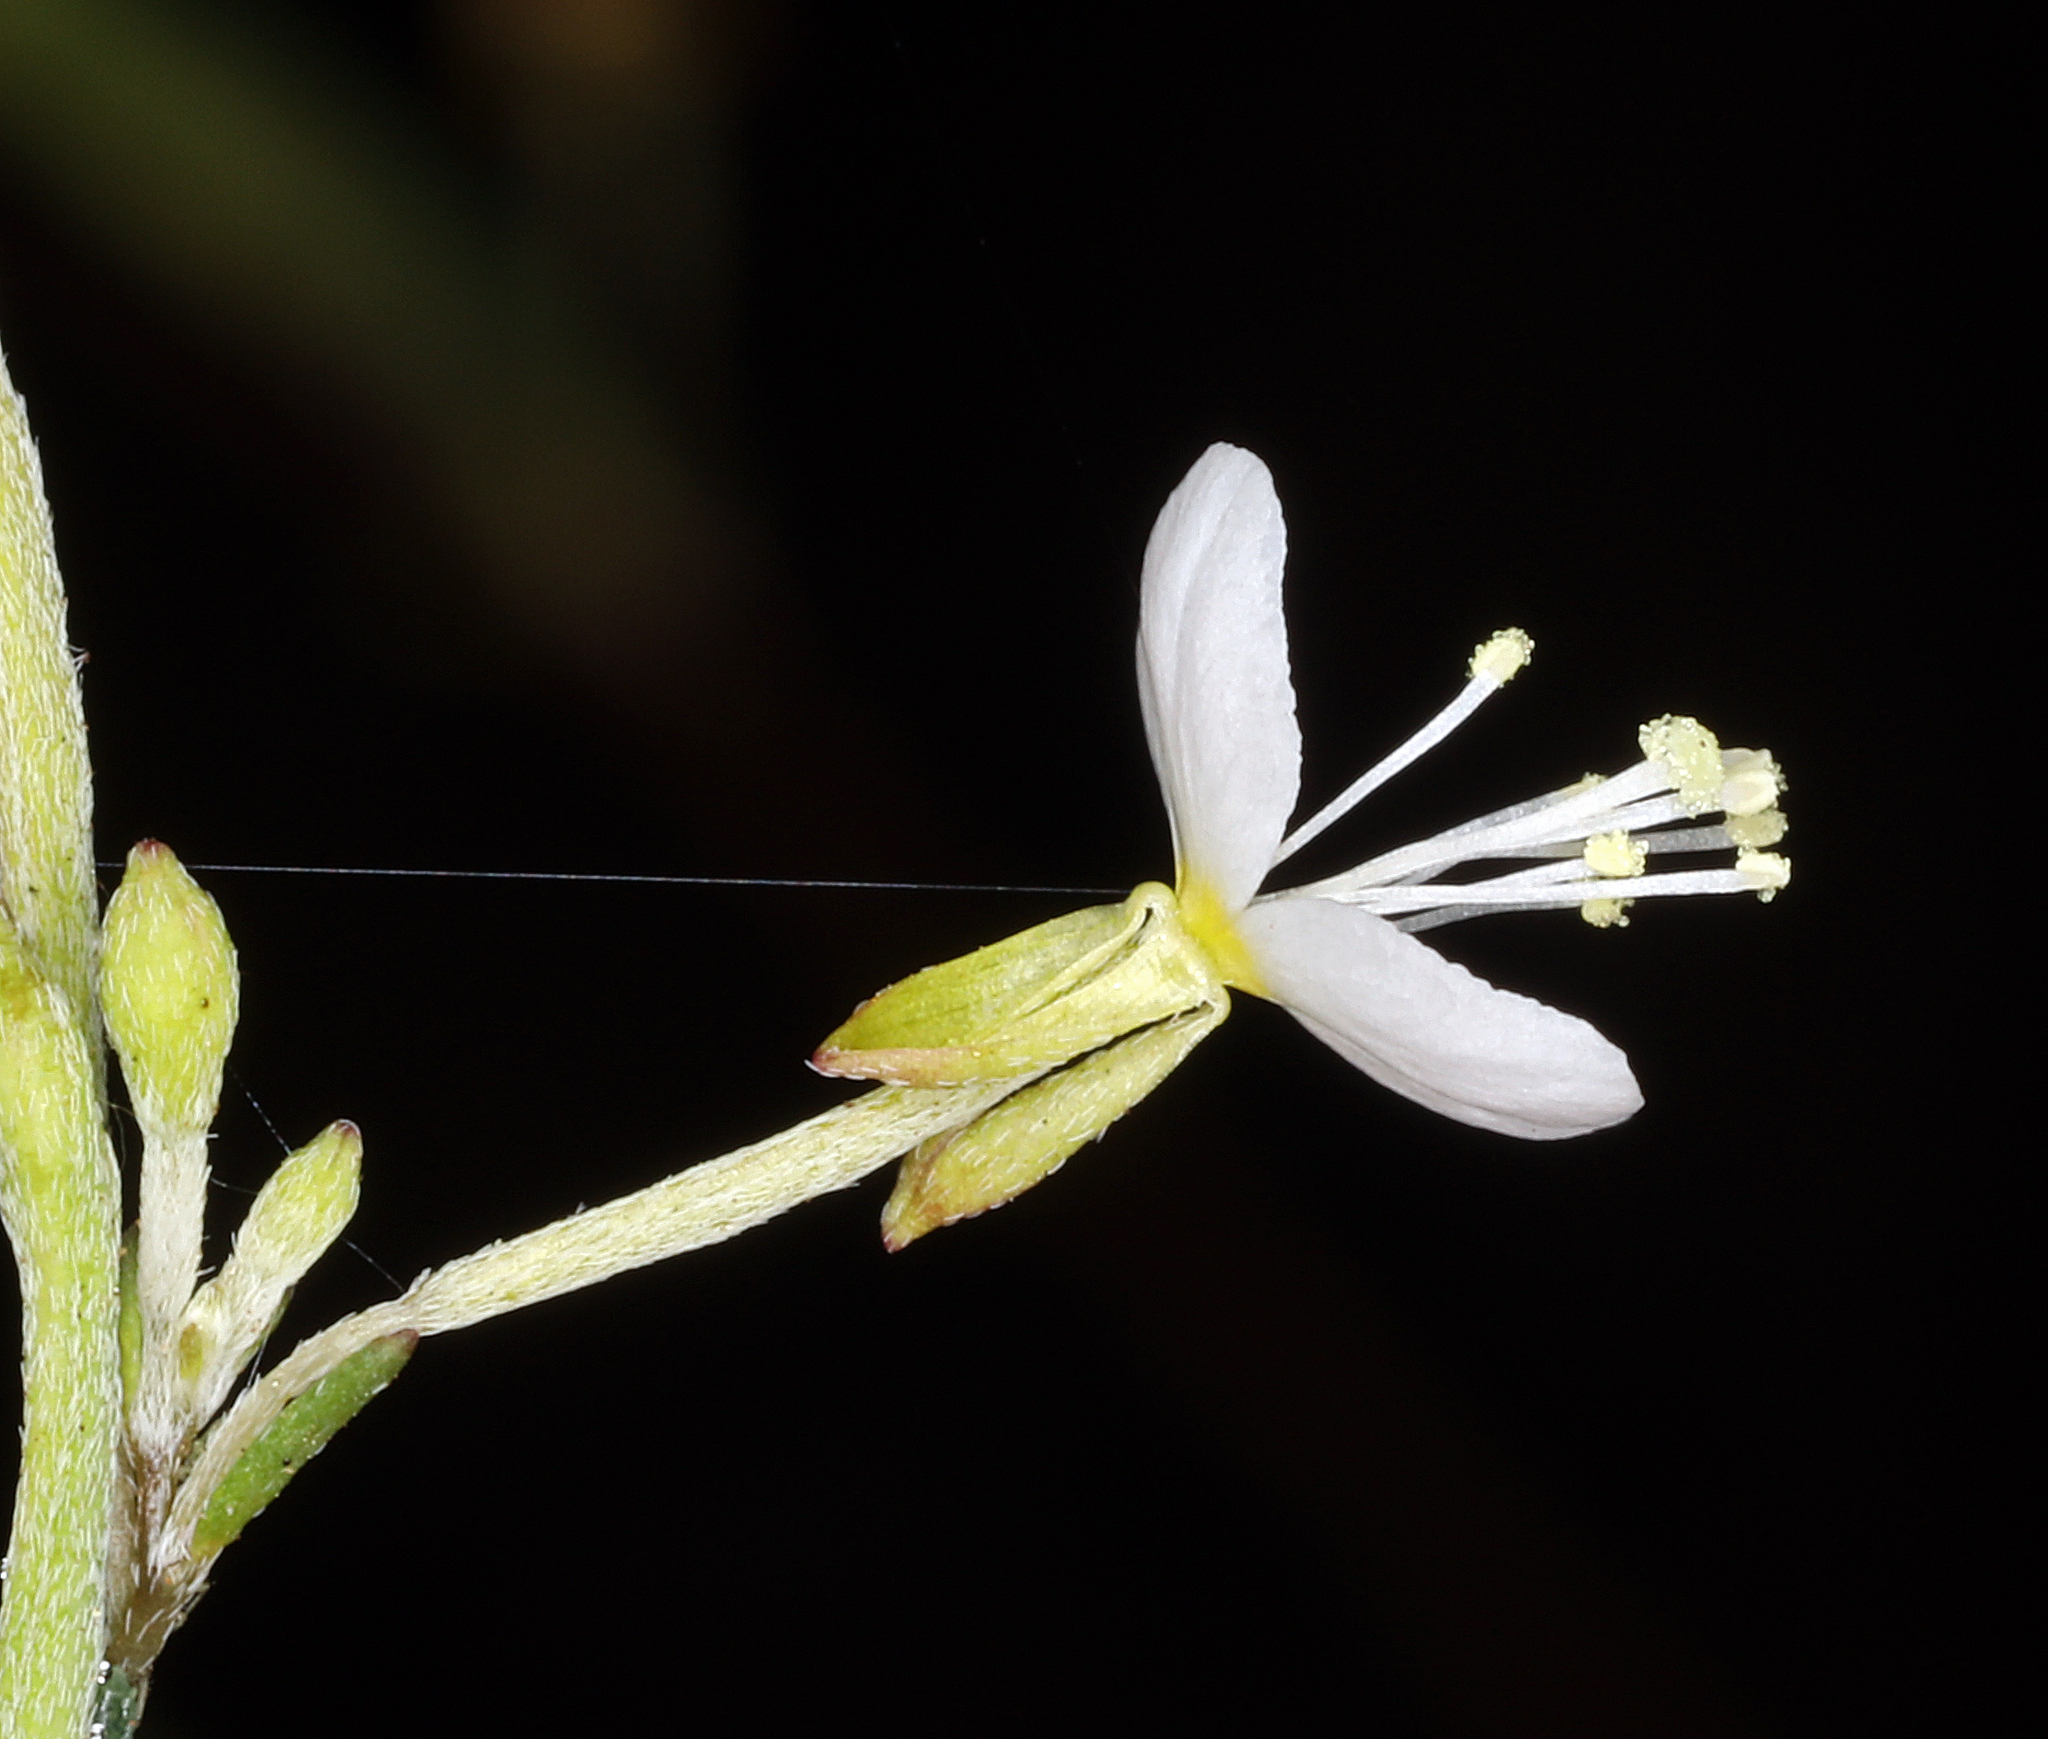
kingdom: Plantae
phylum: Tracheophyta
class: Magnoliopsida
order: Myrtales
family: Onagraceae
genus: Gayophytum
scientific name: Gayophytum heterozygum
